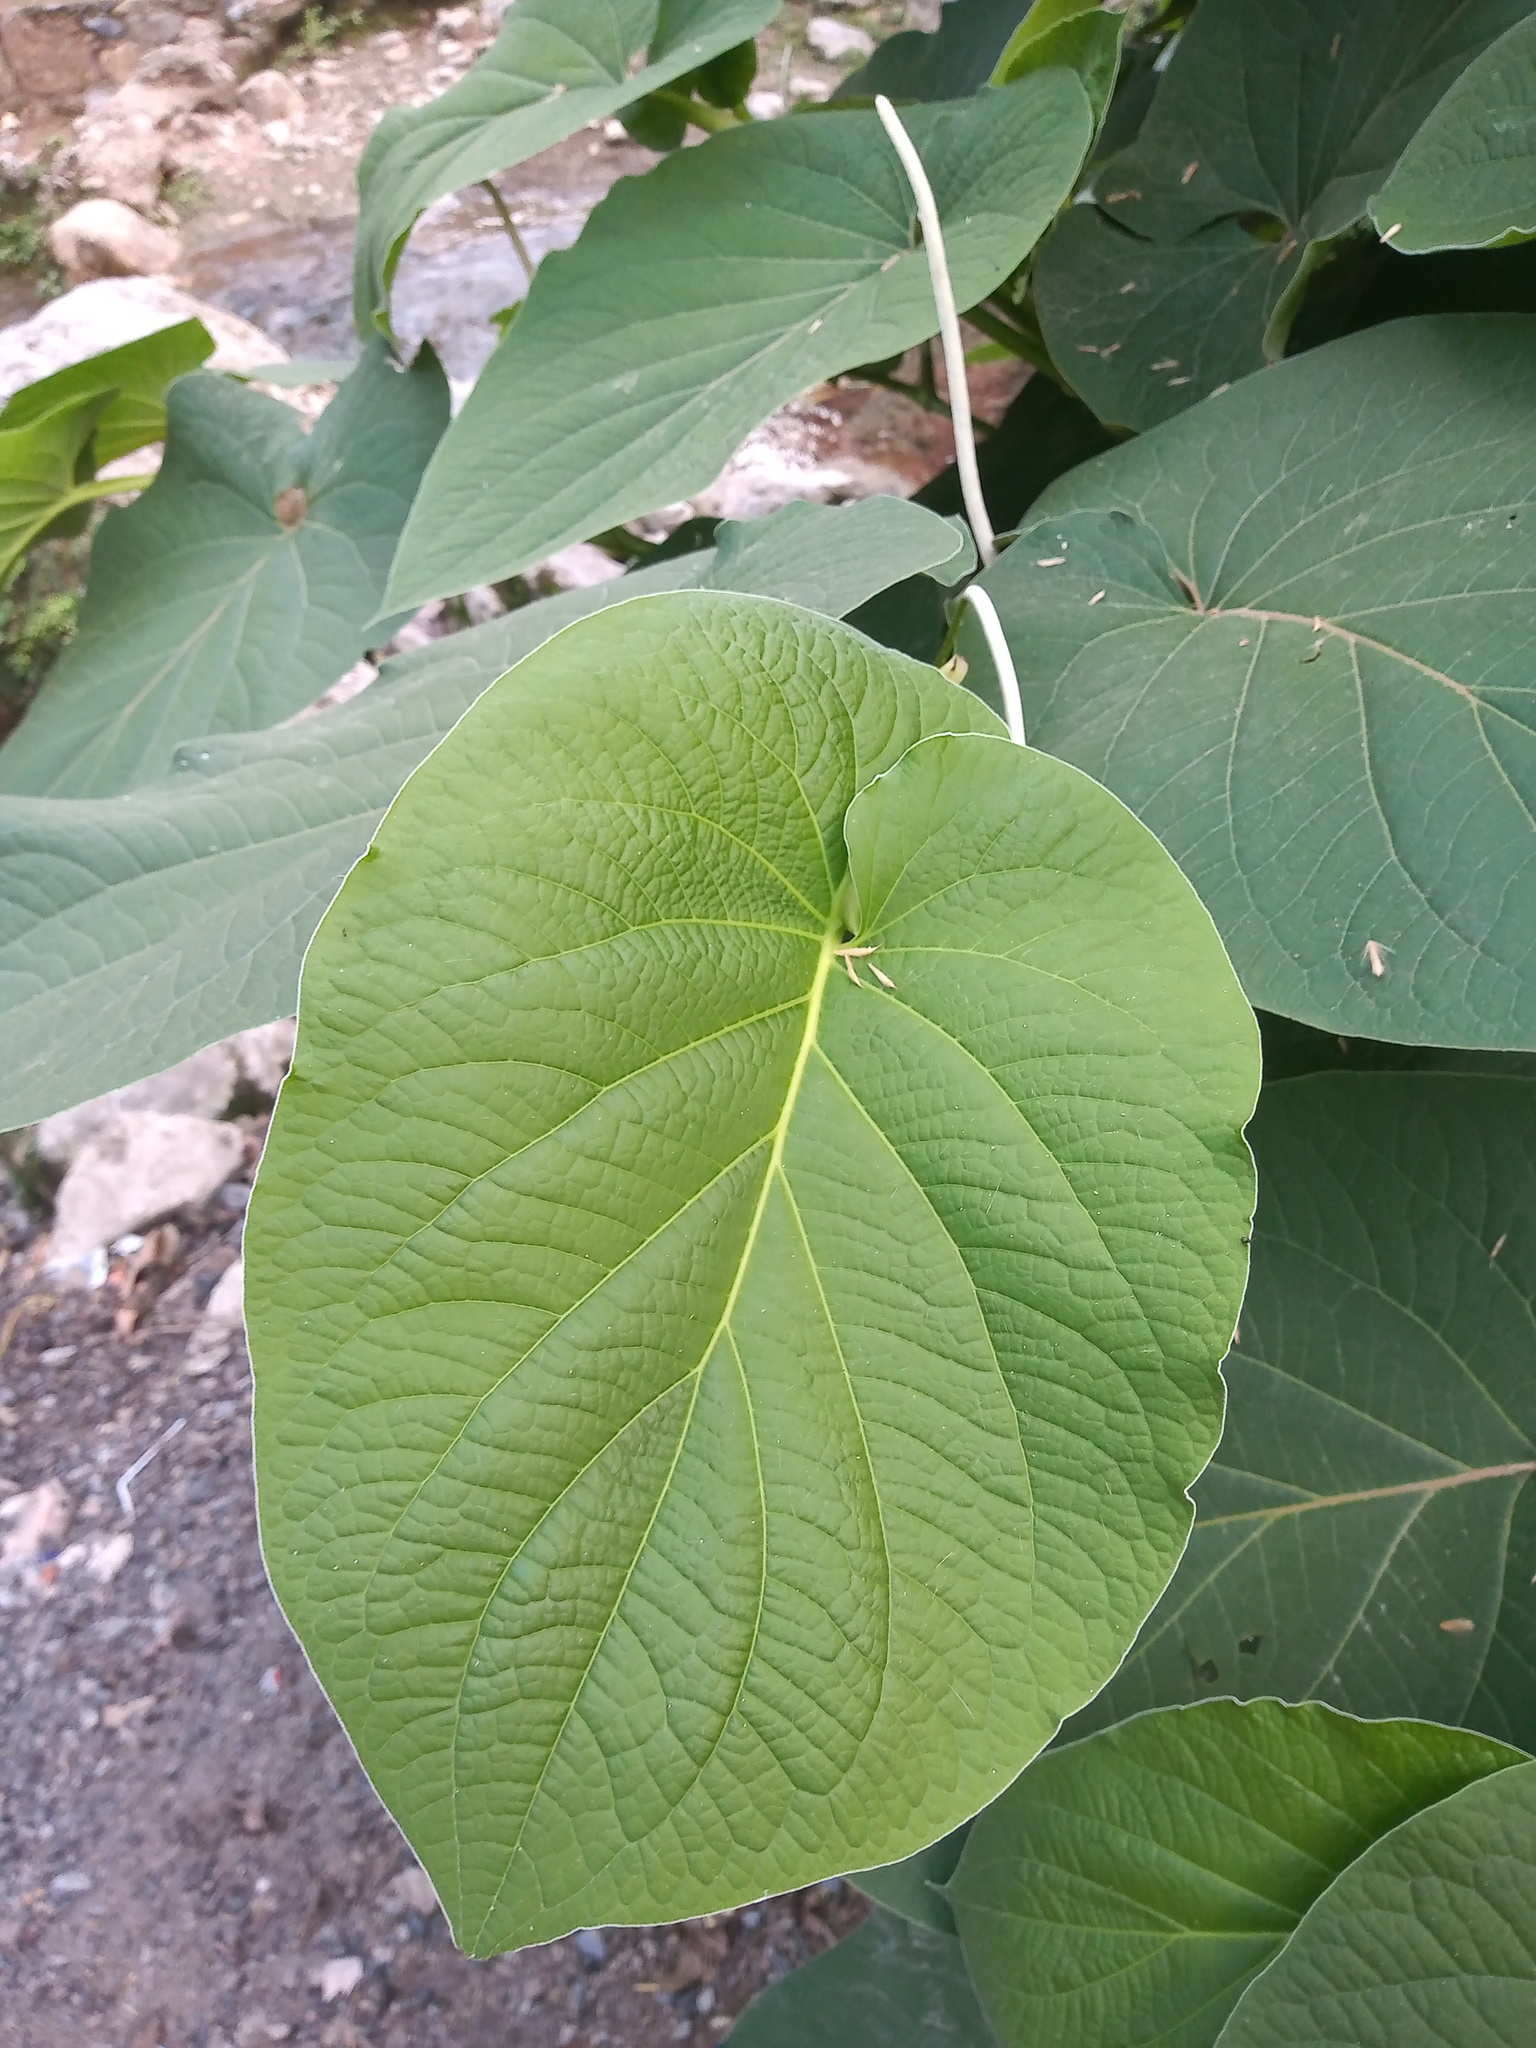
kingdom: Plantae
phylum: Tracheophyta
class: Magnoliopsida
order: Piperales
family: Piperaceae
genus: Piper
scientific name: Piper auritum
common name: Vera cruz pepper
